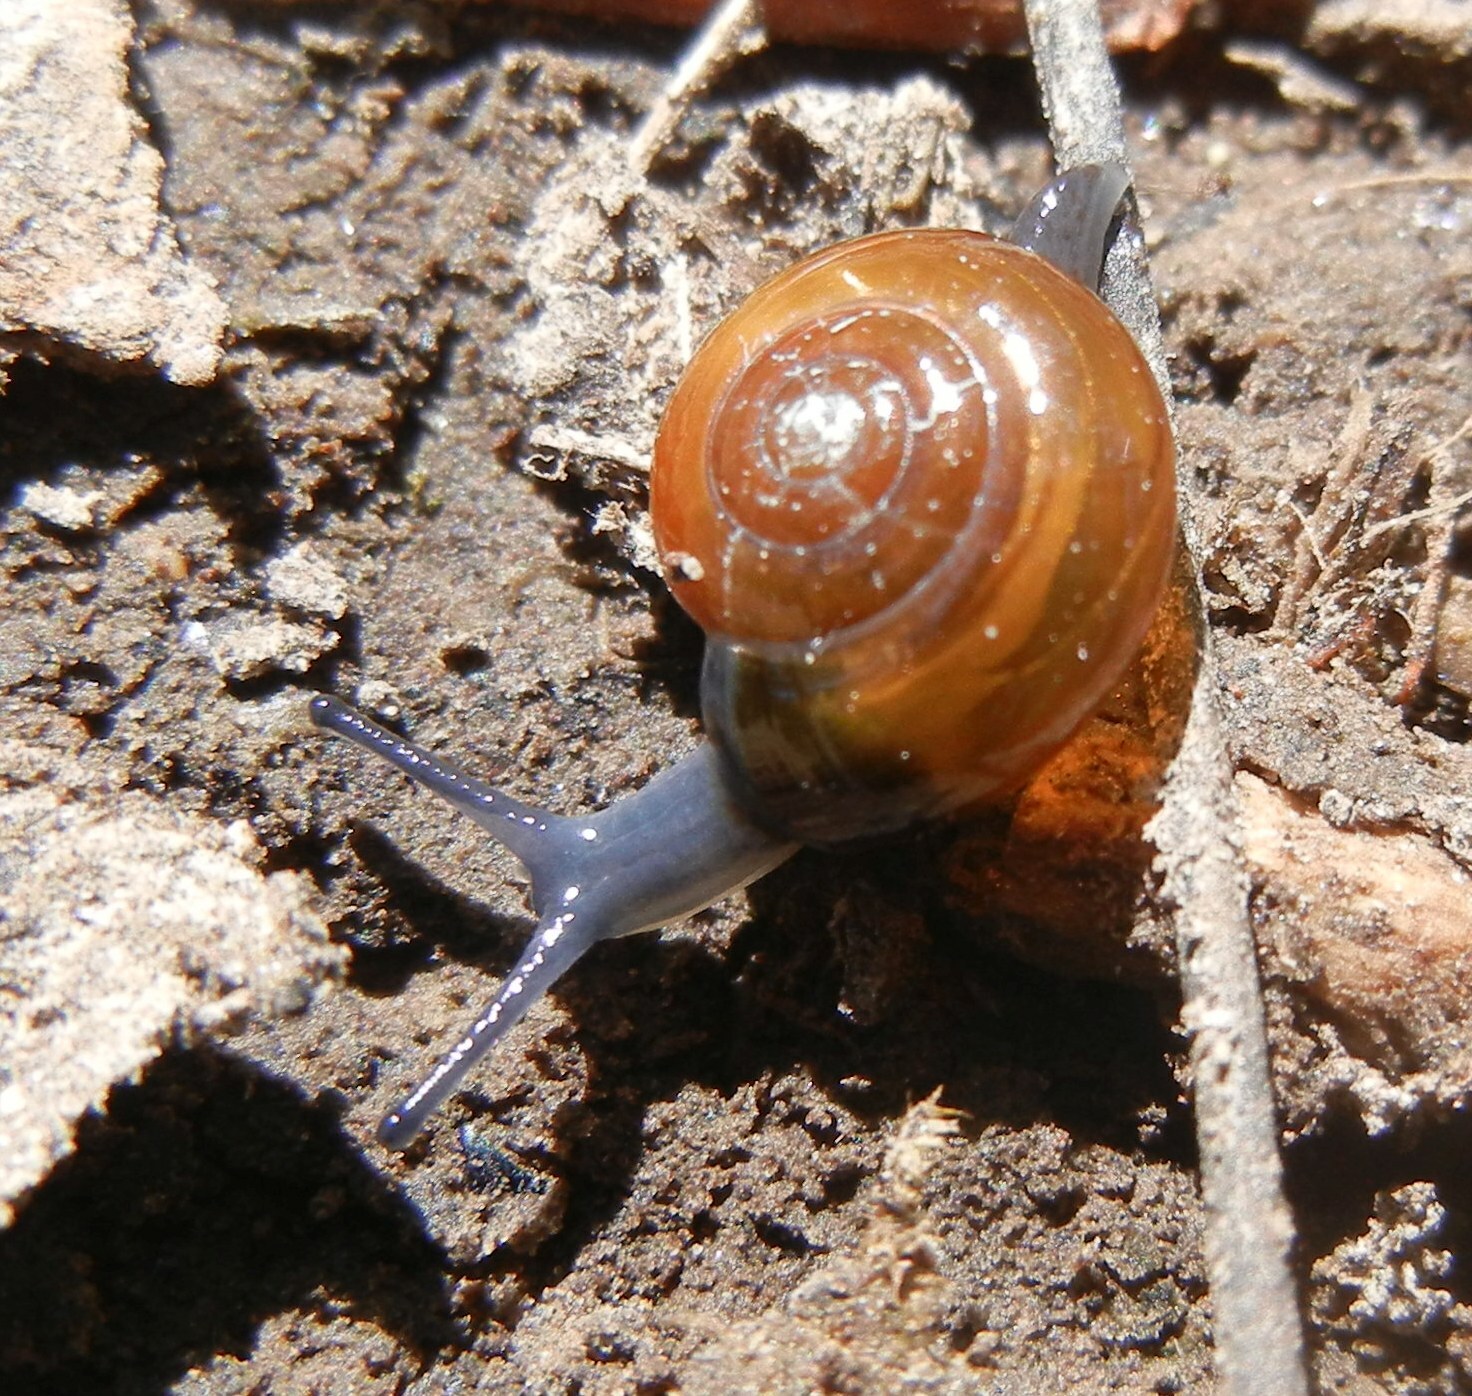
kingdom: Animalia
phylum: Mollusca
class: Gastropoda
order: Stylommatophora
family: Oxychilidae
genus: Oxychilus
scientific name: Oxychilus navarricus
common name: Swiss glass-snail
